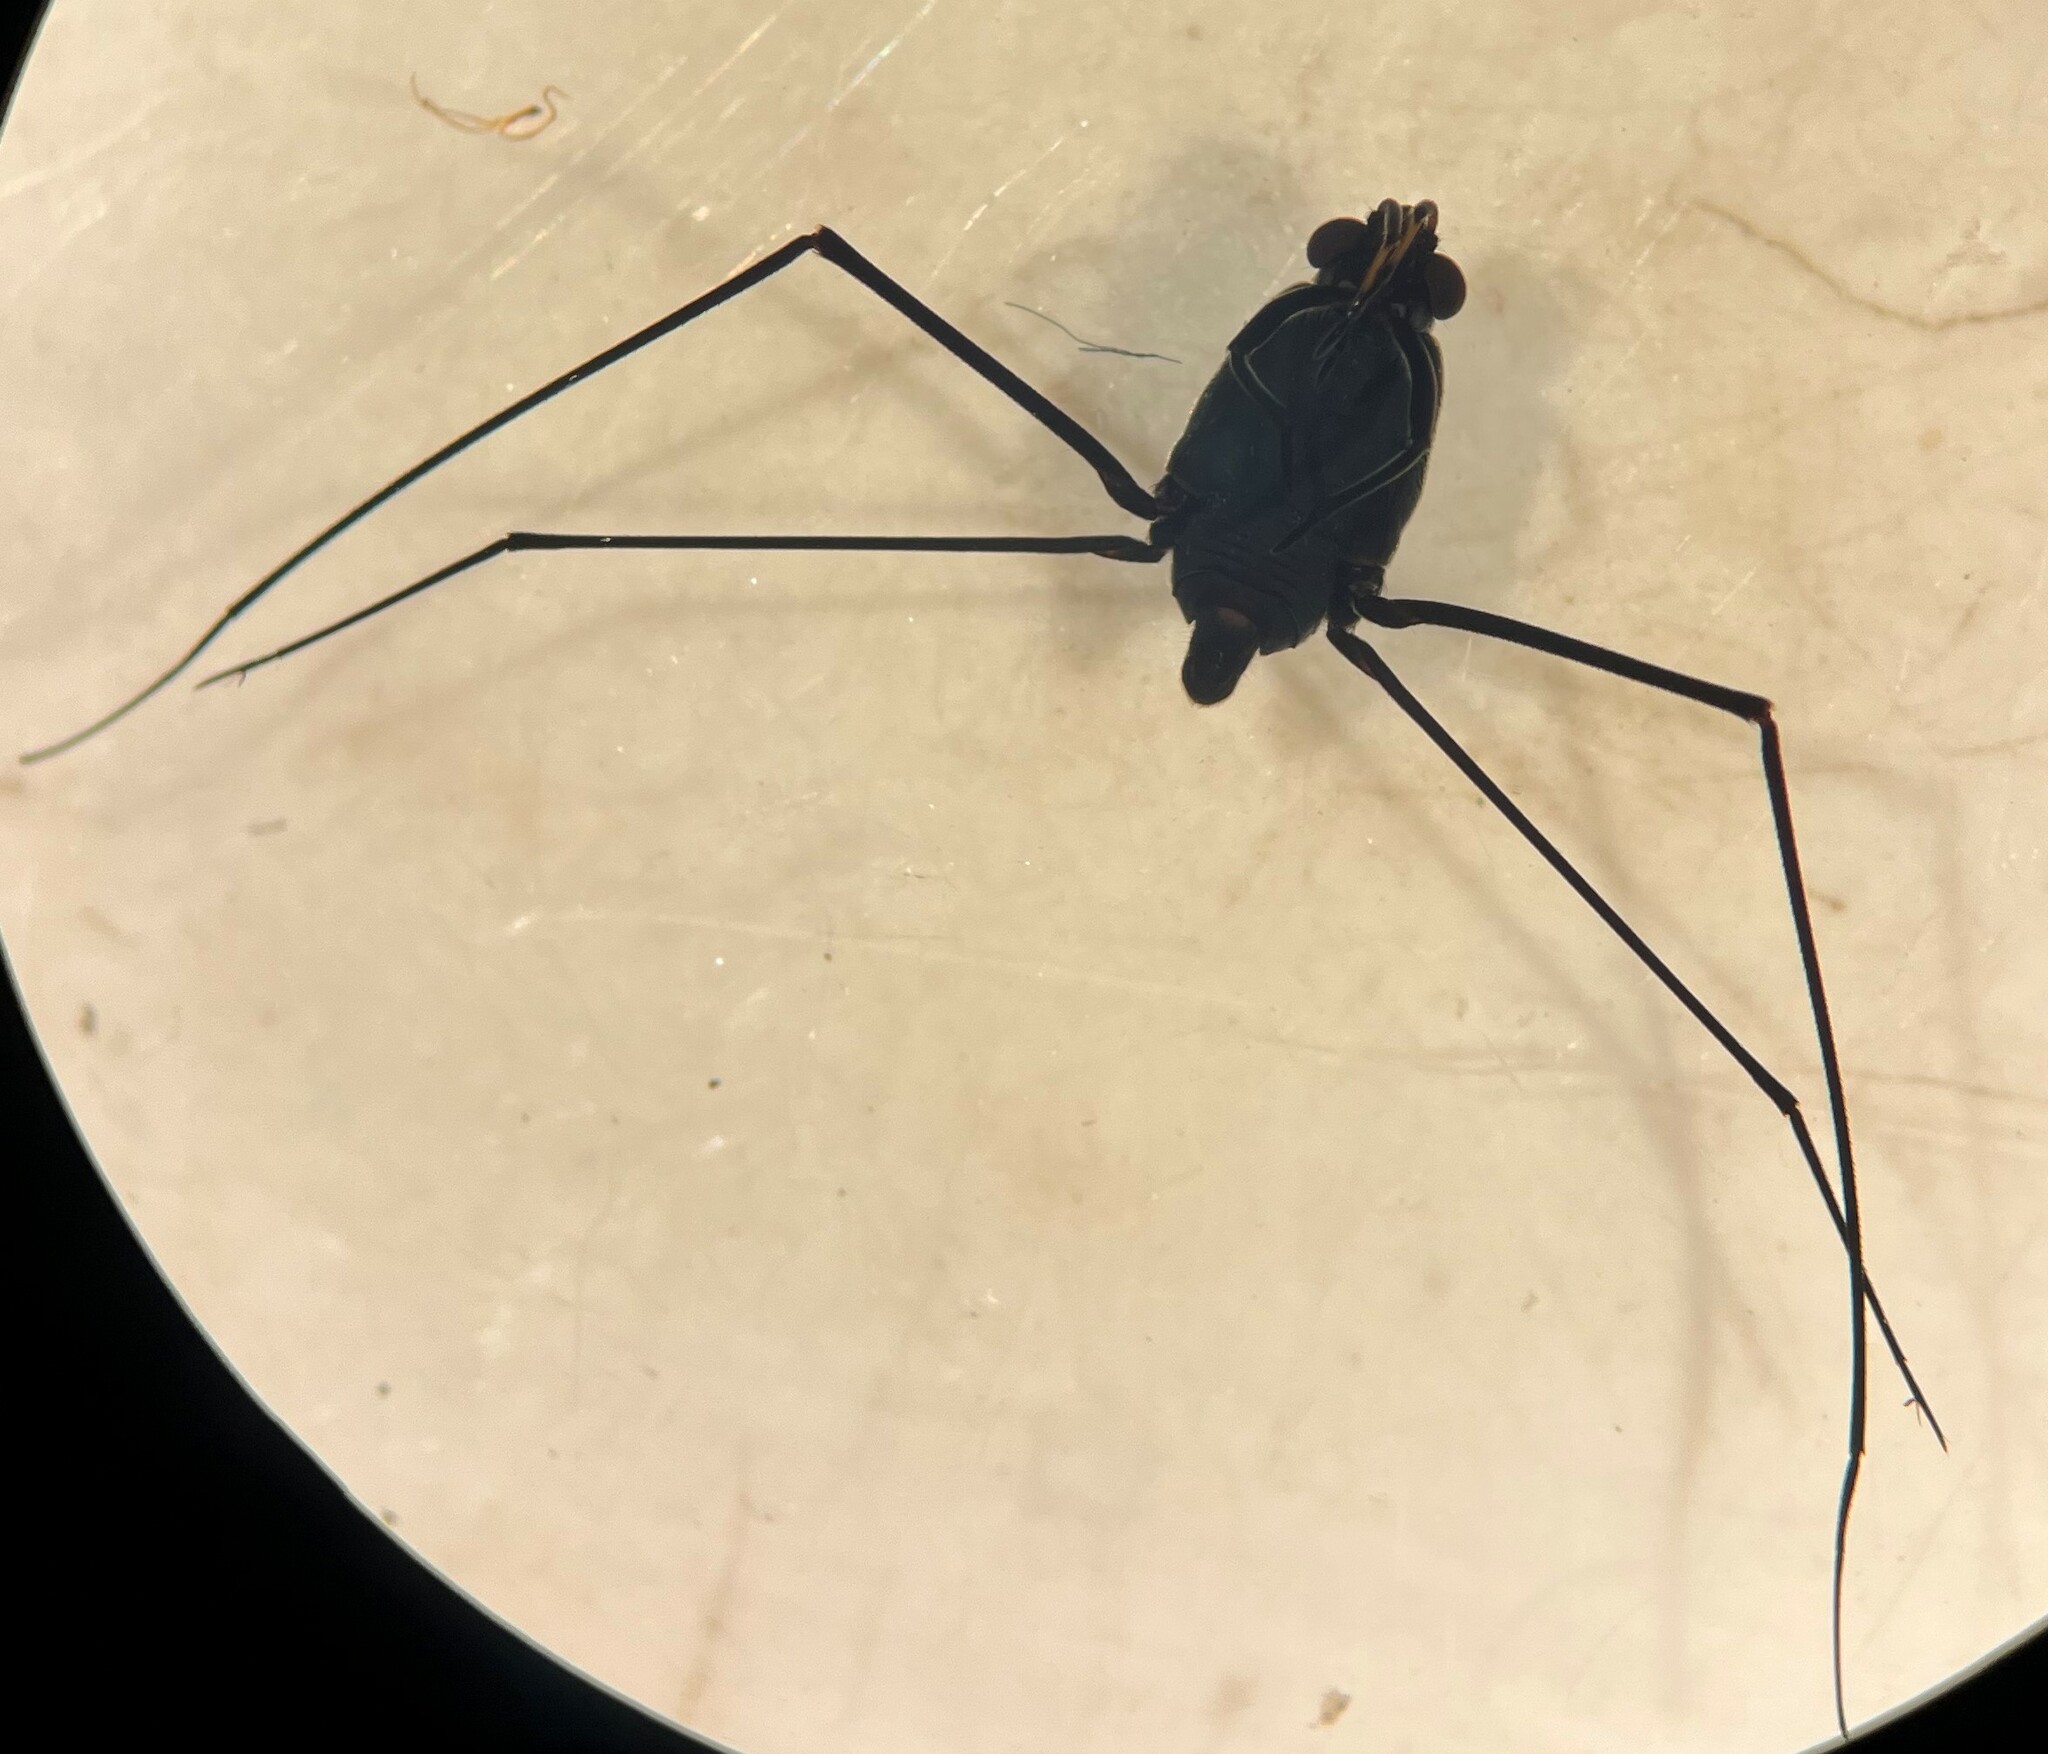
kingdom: Animalia
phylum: Arthropoda
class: Insecta
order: Hemiptera
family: Gerridae
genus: Metrobates
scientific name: Metrobates artus
